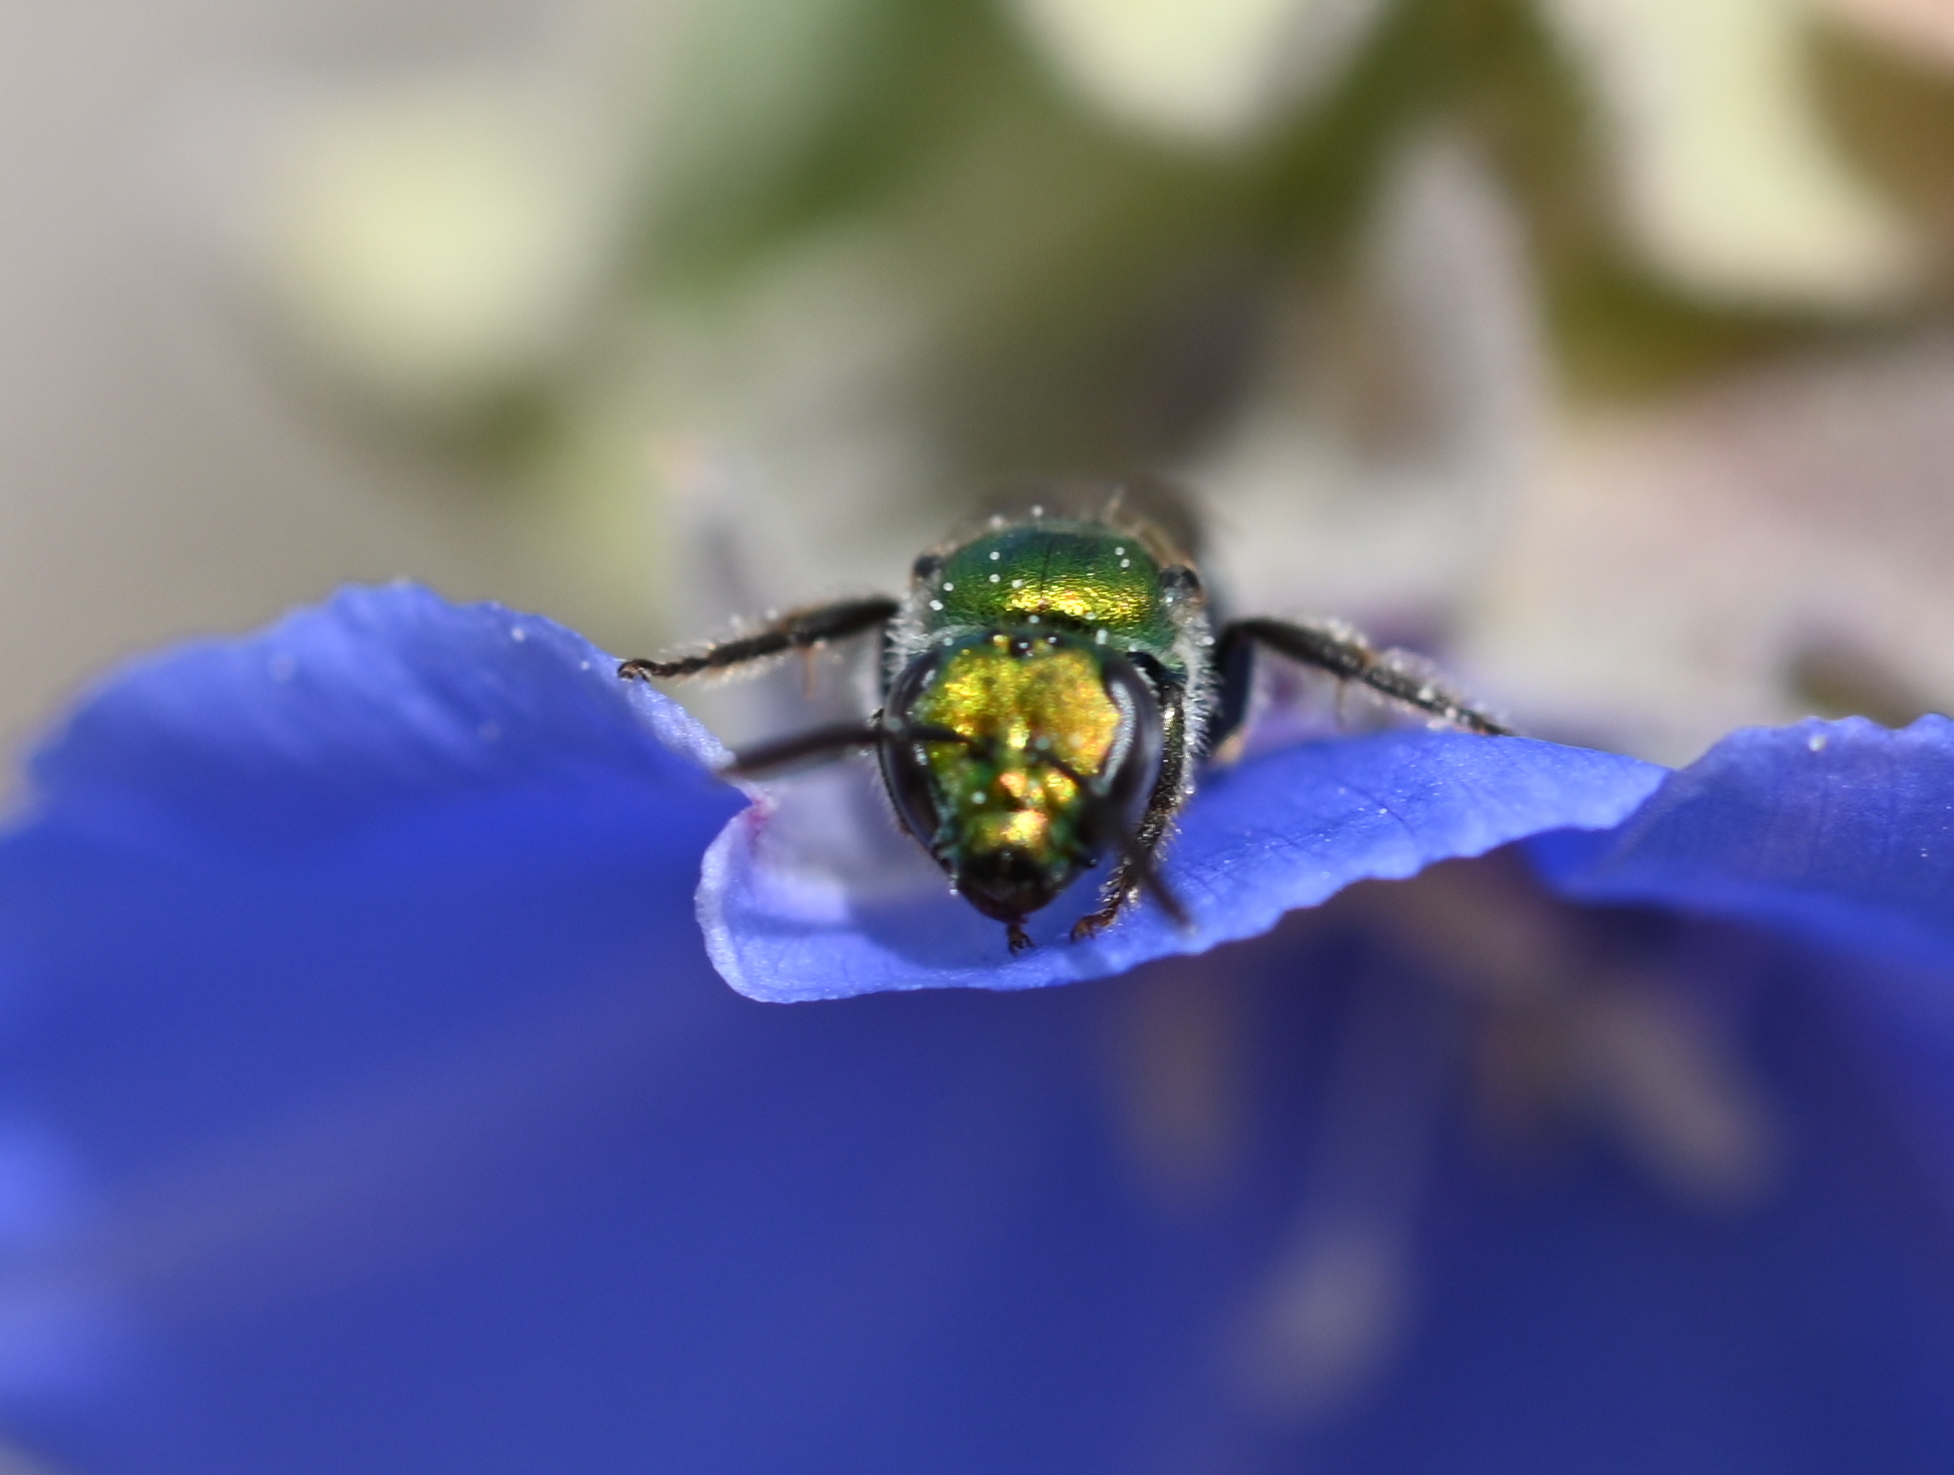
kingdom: Animalia
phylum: Arthropoda
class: Insecta
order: Hymenoptera
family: Halictidae
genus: Augochlorella
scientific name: Augochlorella pomoniella
